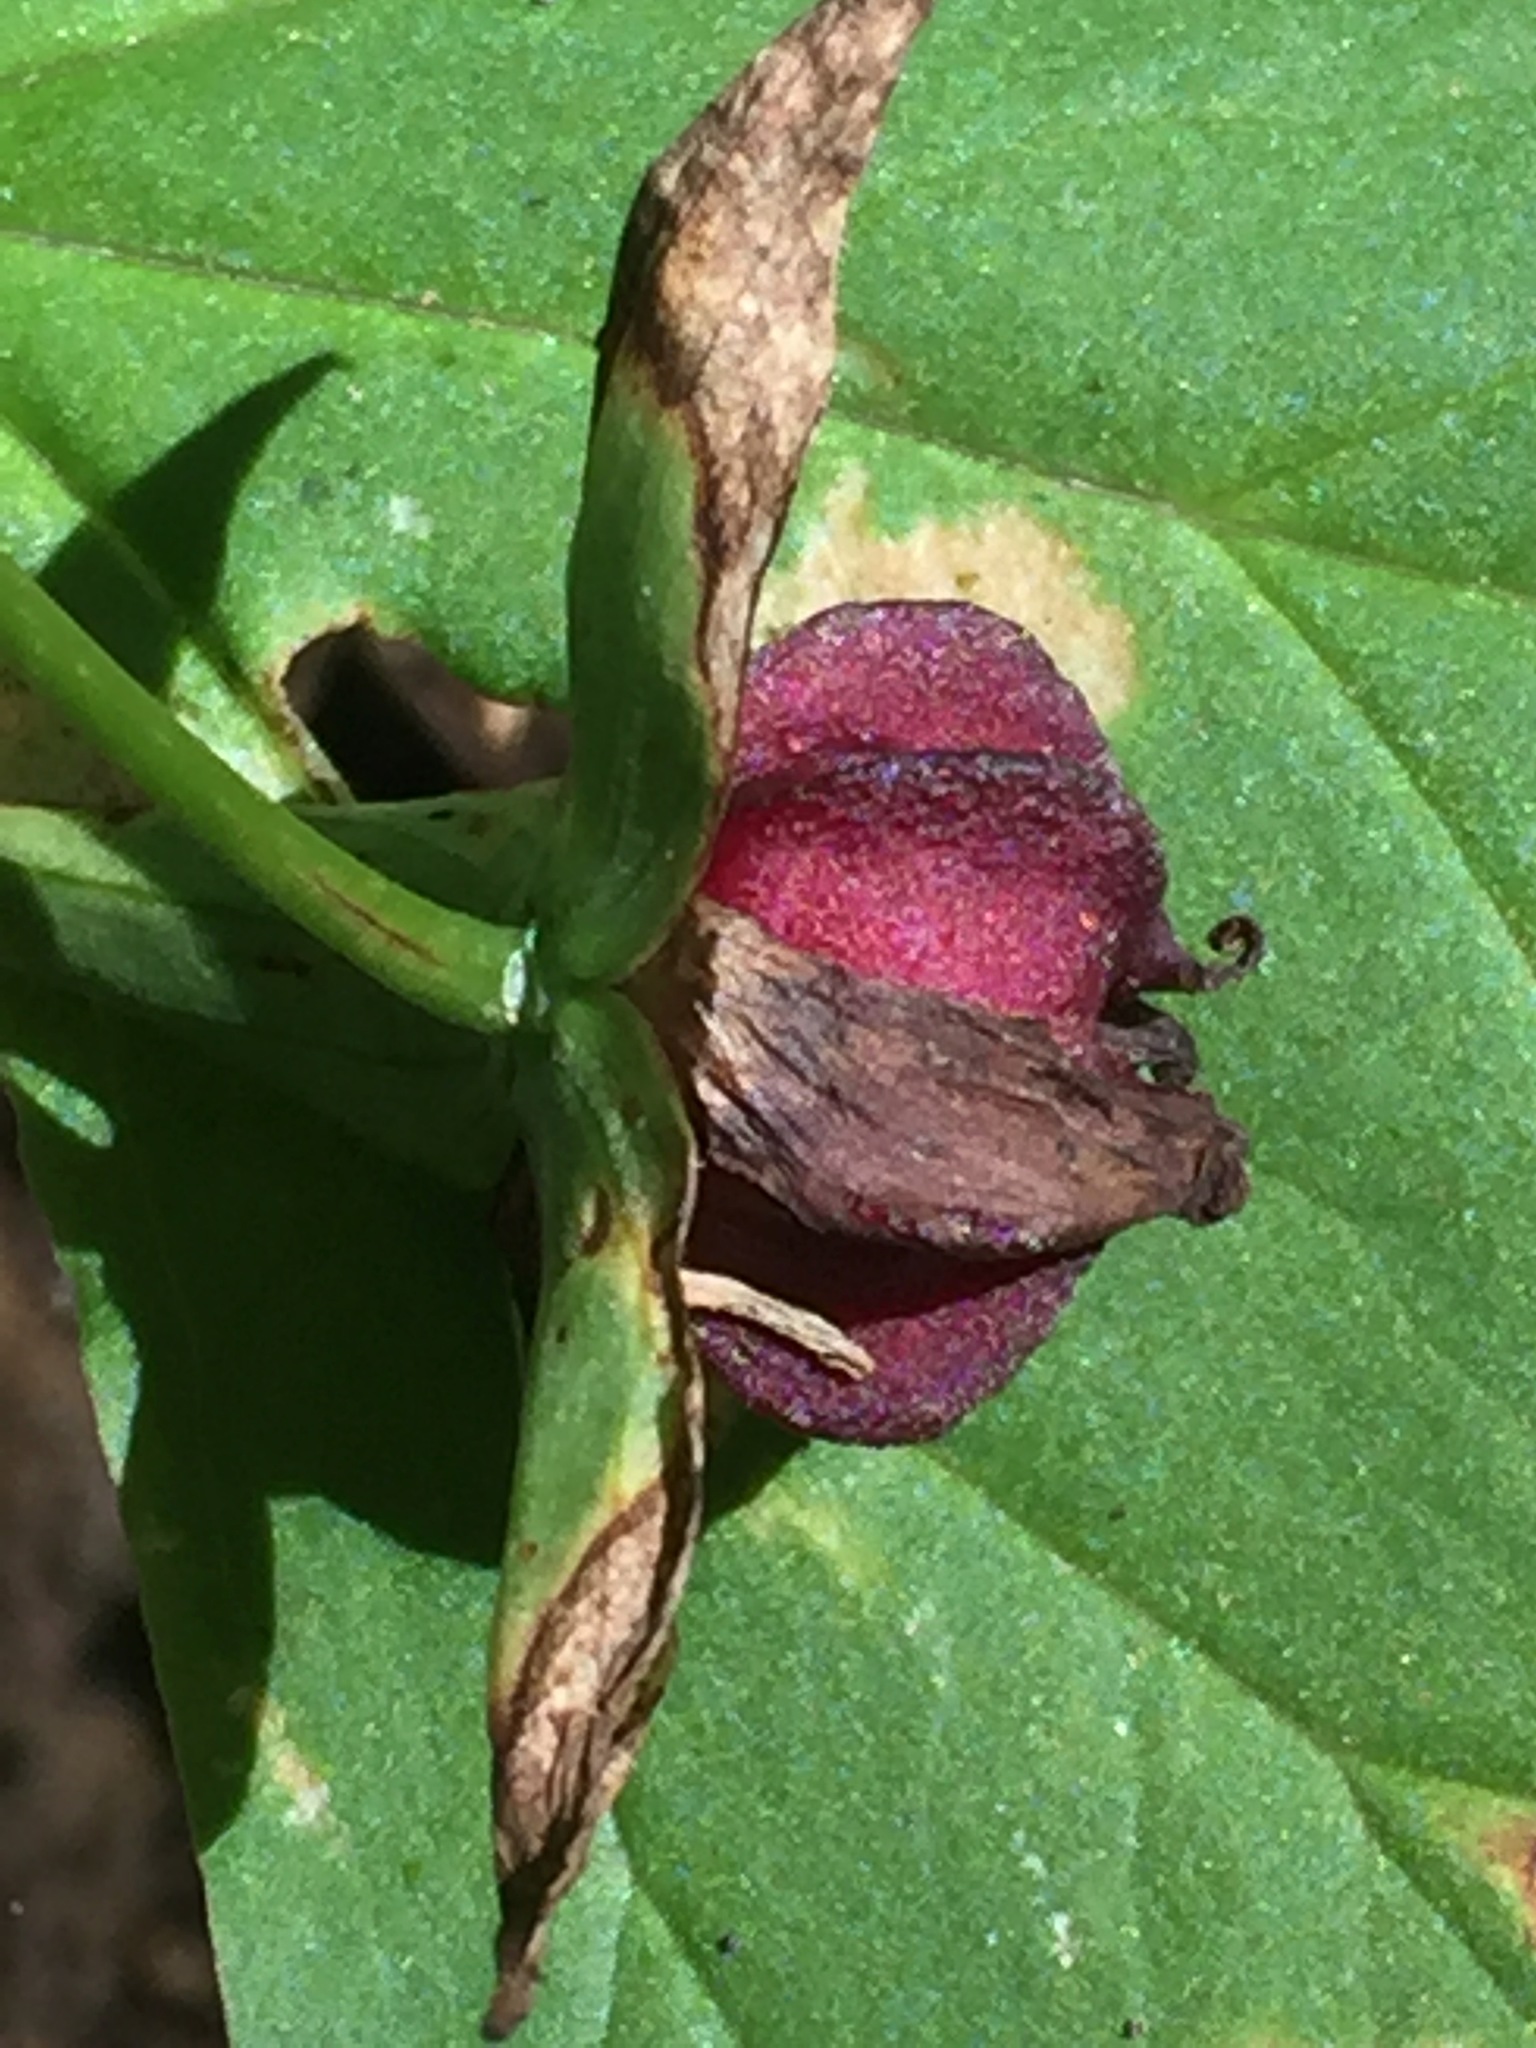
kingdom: Plantae
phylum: Tracheophyta
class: Liliopsida
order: Liliales
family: Melanthiaceae
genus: Trillium
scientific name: Trillium erectum
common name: Purple trillium
